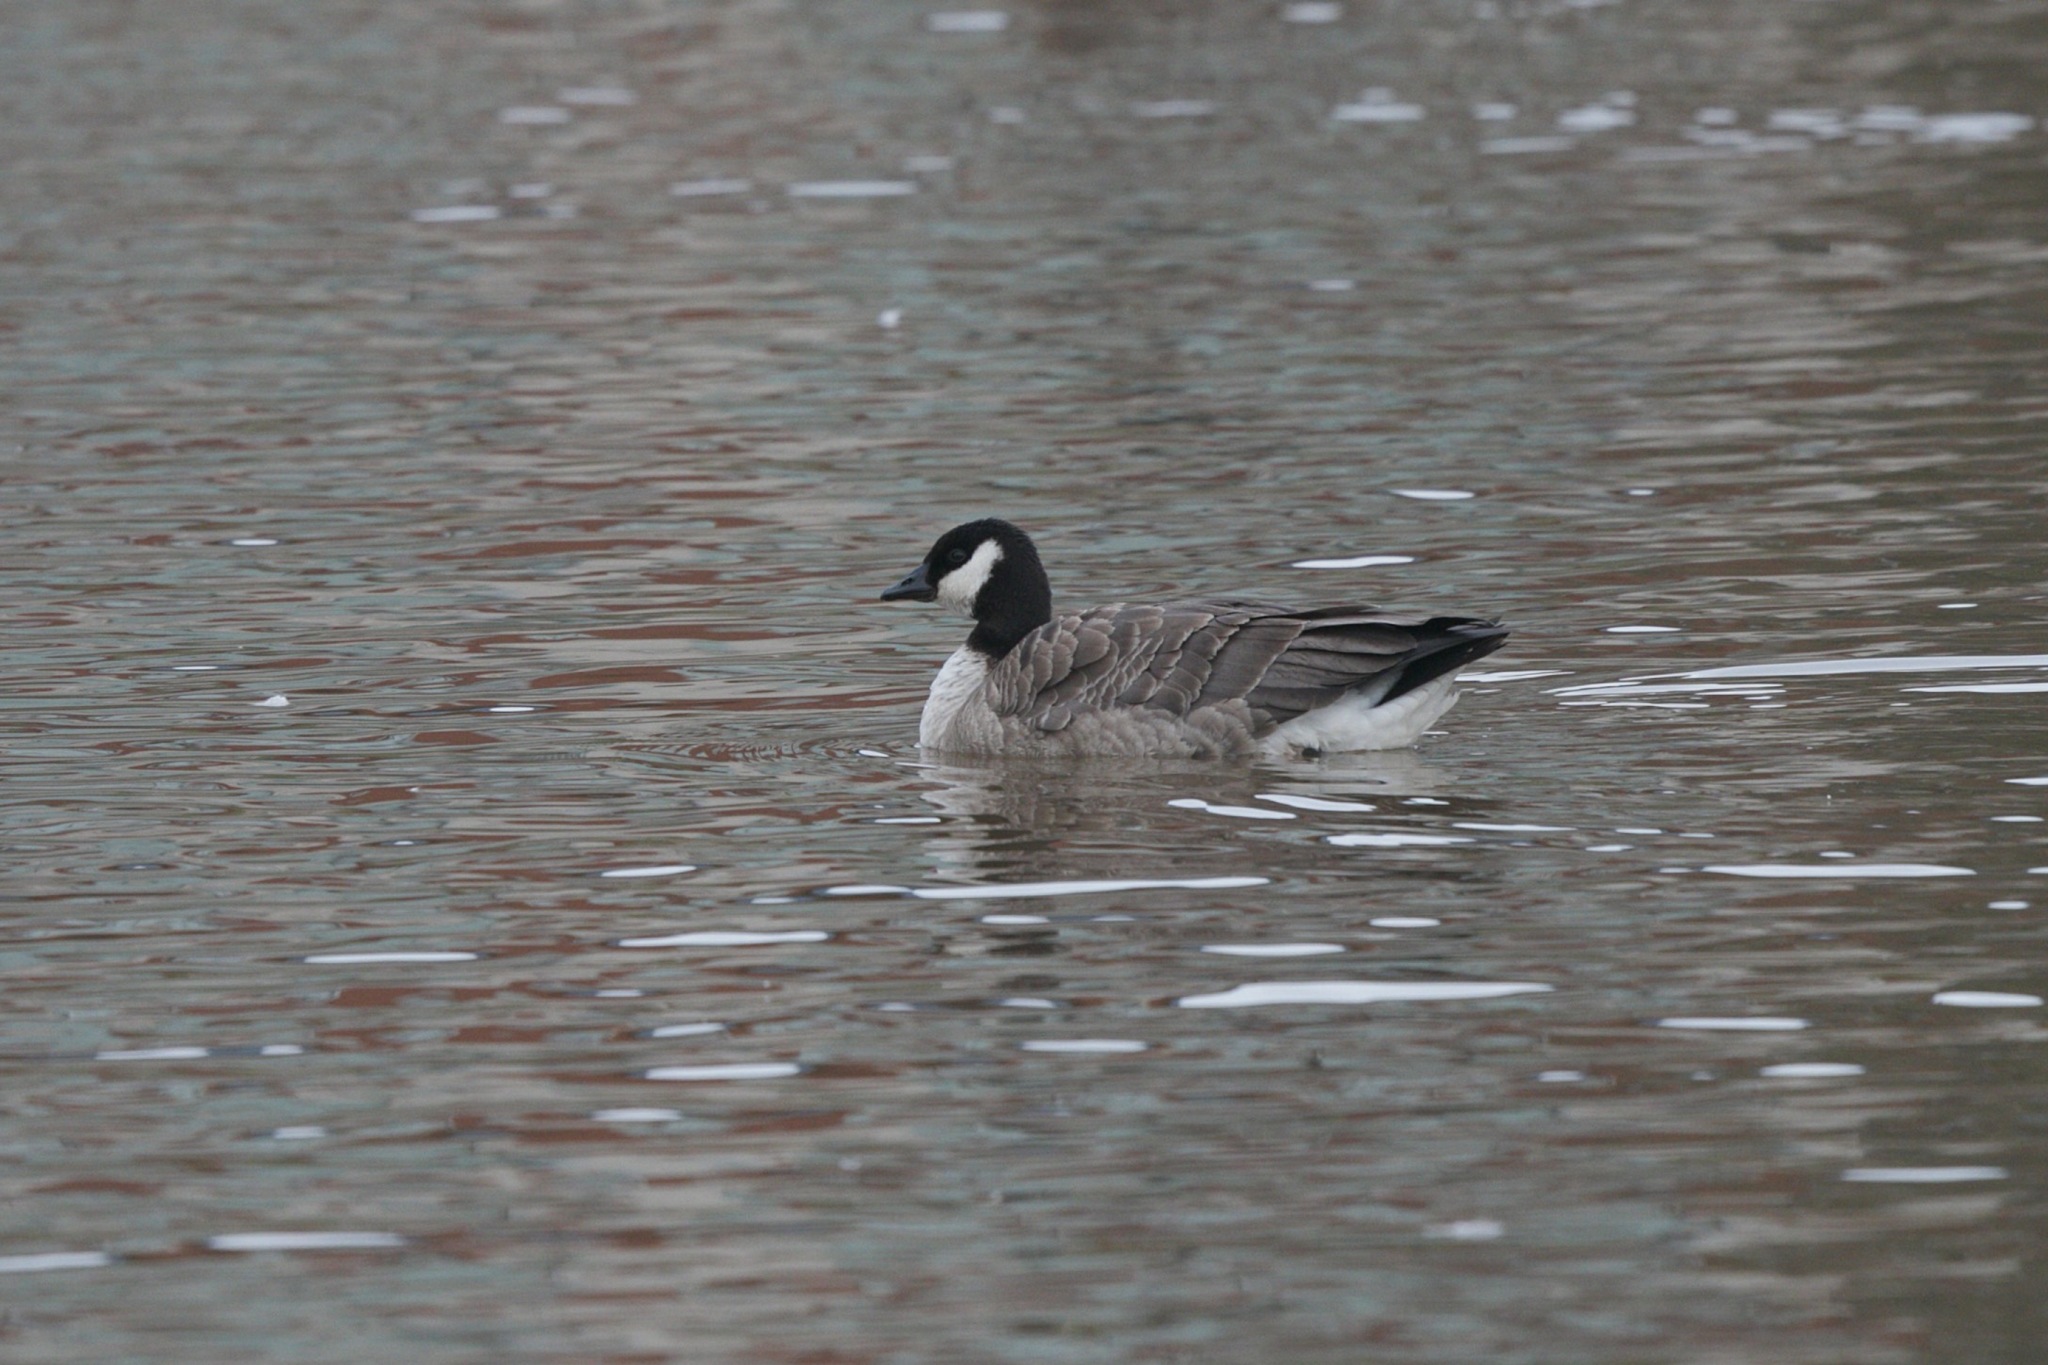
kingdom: Animalia
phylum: Chordata
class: Aves
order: Anseriformes
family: Anatidae
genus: Branta
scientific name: Branta hutchinsii
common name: Cackling goose
